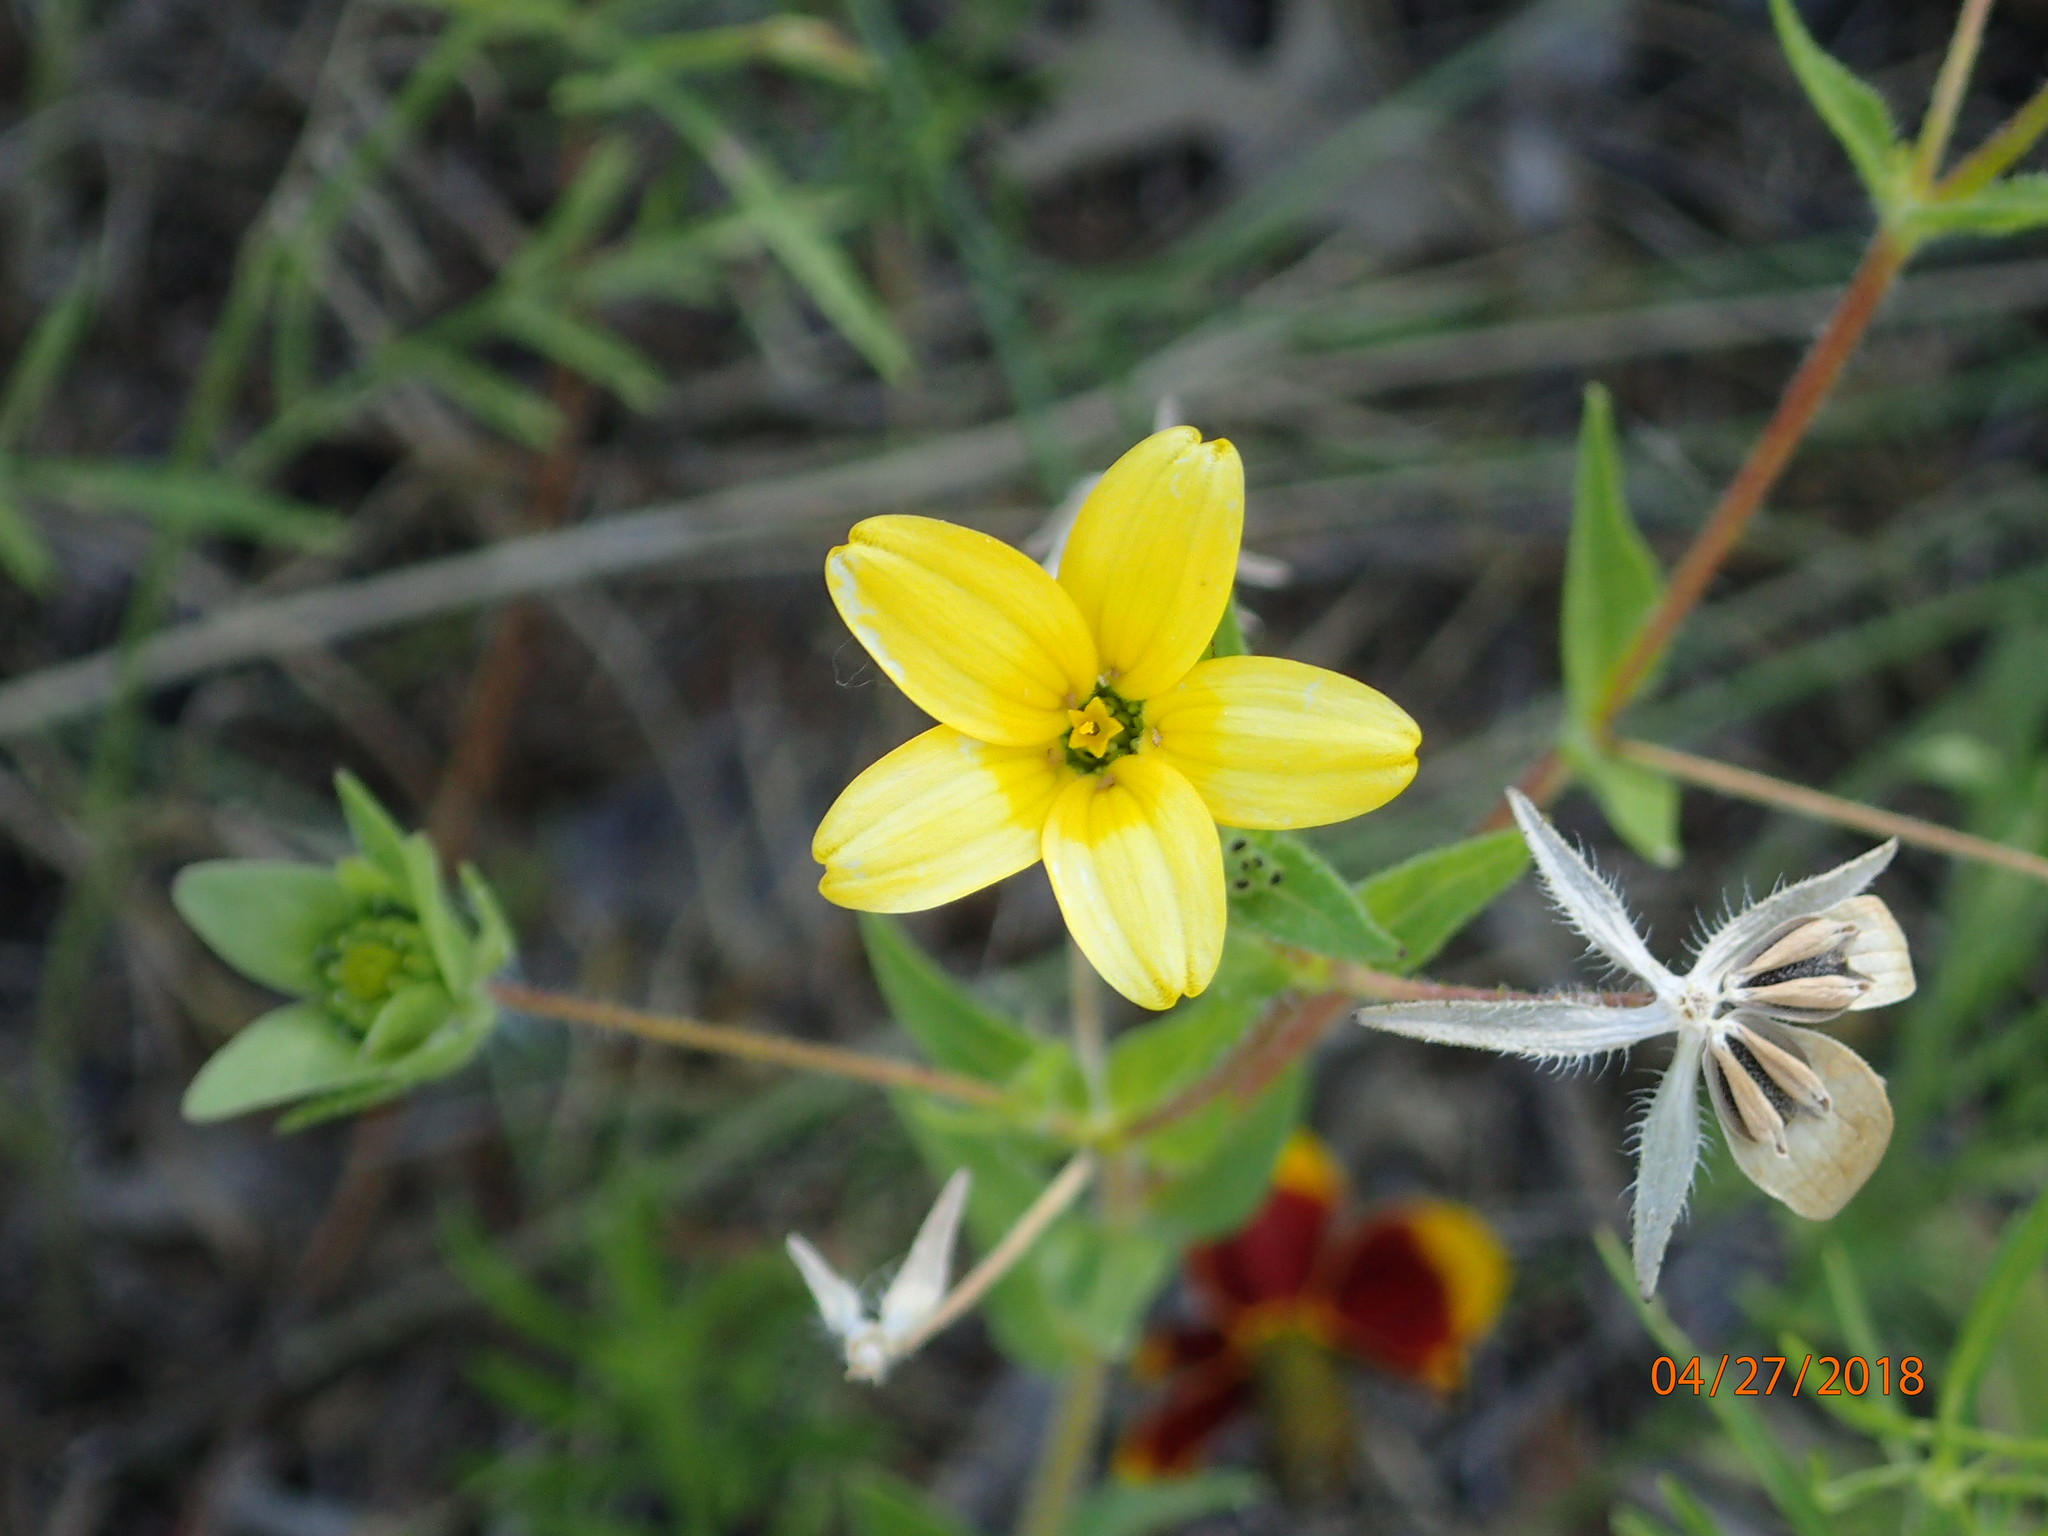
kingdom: Plantae
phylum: Tracheophyta
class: Magnoliopsida
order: Asterales
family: Asteraceae
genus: Lindheimera
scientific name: Lindheimera texana
